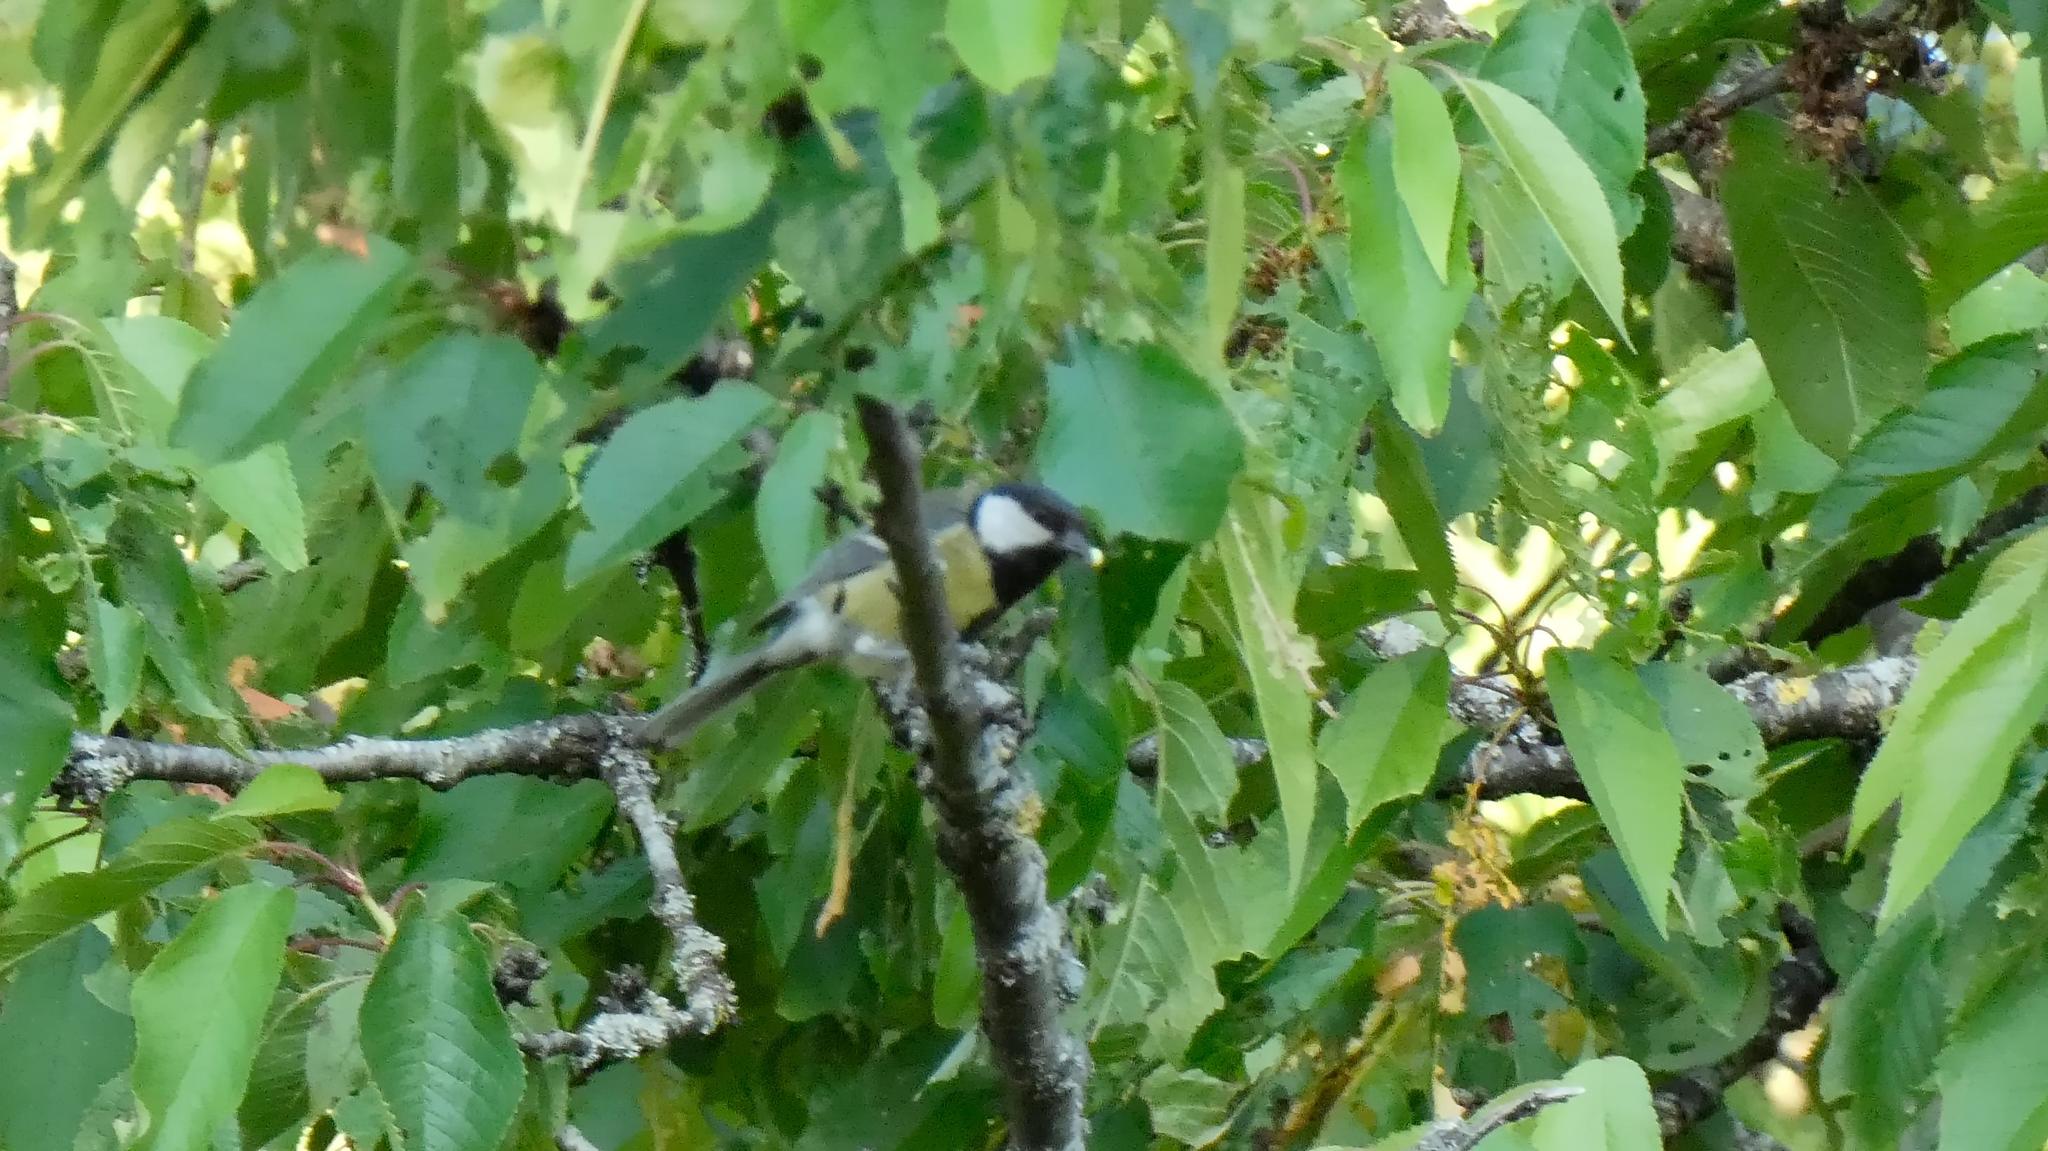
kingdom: Animalia
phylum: Chordata
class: Aves
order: Passeriformes
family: Paridae
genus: Parus
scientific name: Parus major
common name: Great tit
